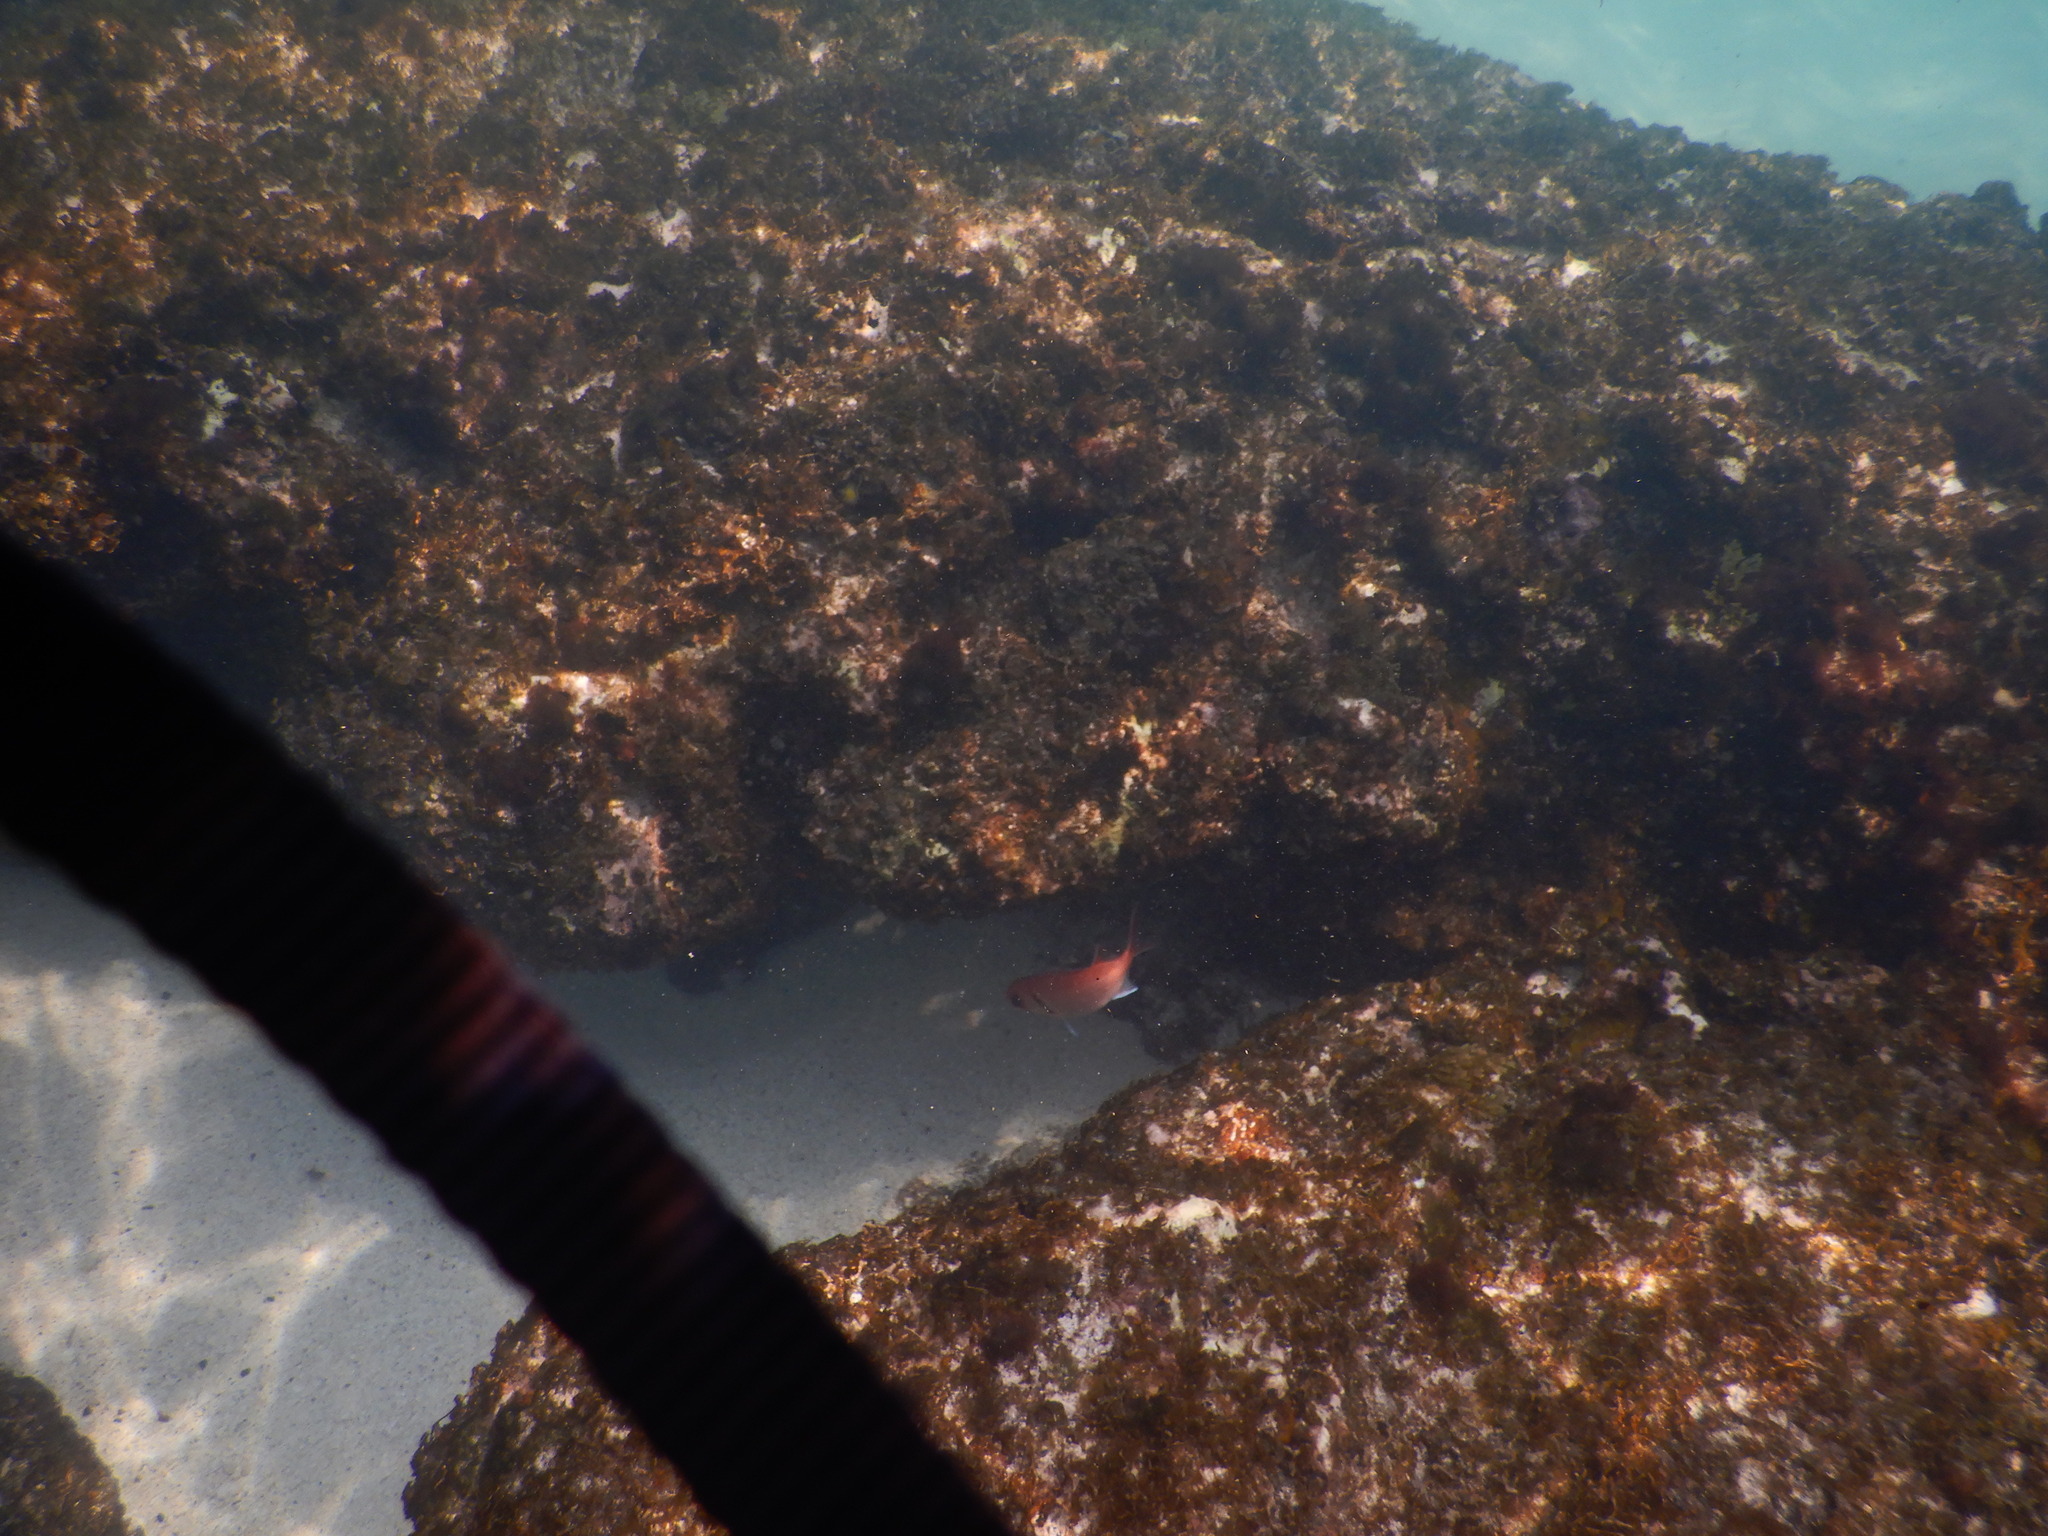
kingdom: Animalia
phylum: Chordata
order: Beryciformes
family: Holocentridae
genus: Myripristis
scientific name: Myripristis jacobus
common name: Blackbar soldierfish
